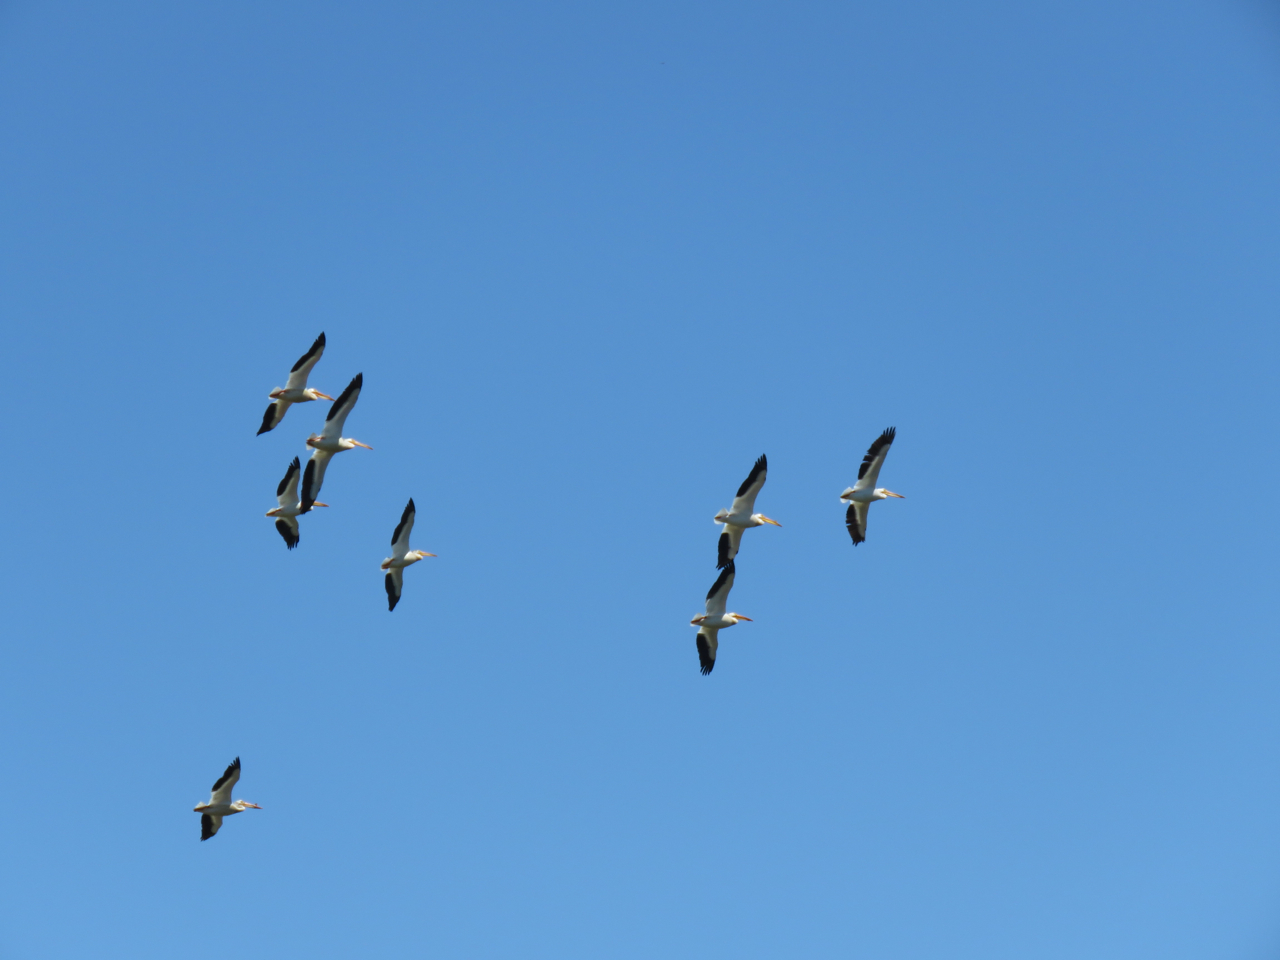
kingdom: Animalia
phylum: Chordata
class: Aves
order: Pelecaniformes
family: Pelecanidae
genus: Pelecanus
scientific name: Pelecanus erythrorhynchos
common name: American white pelican
